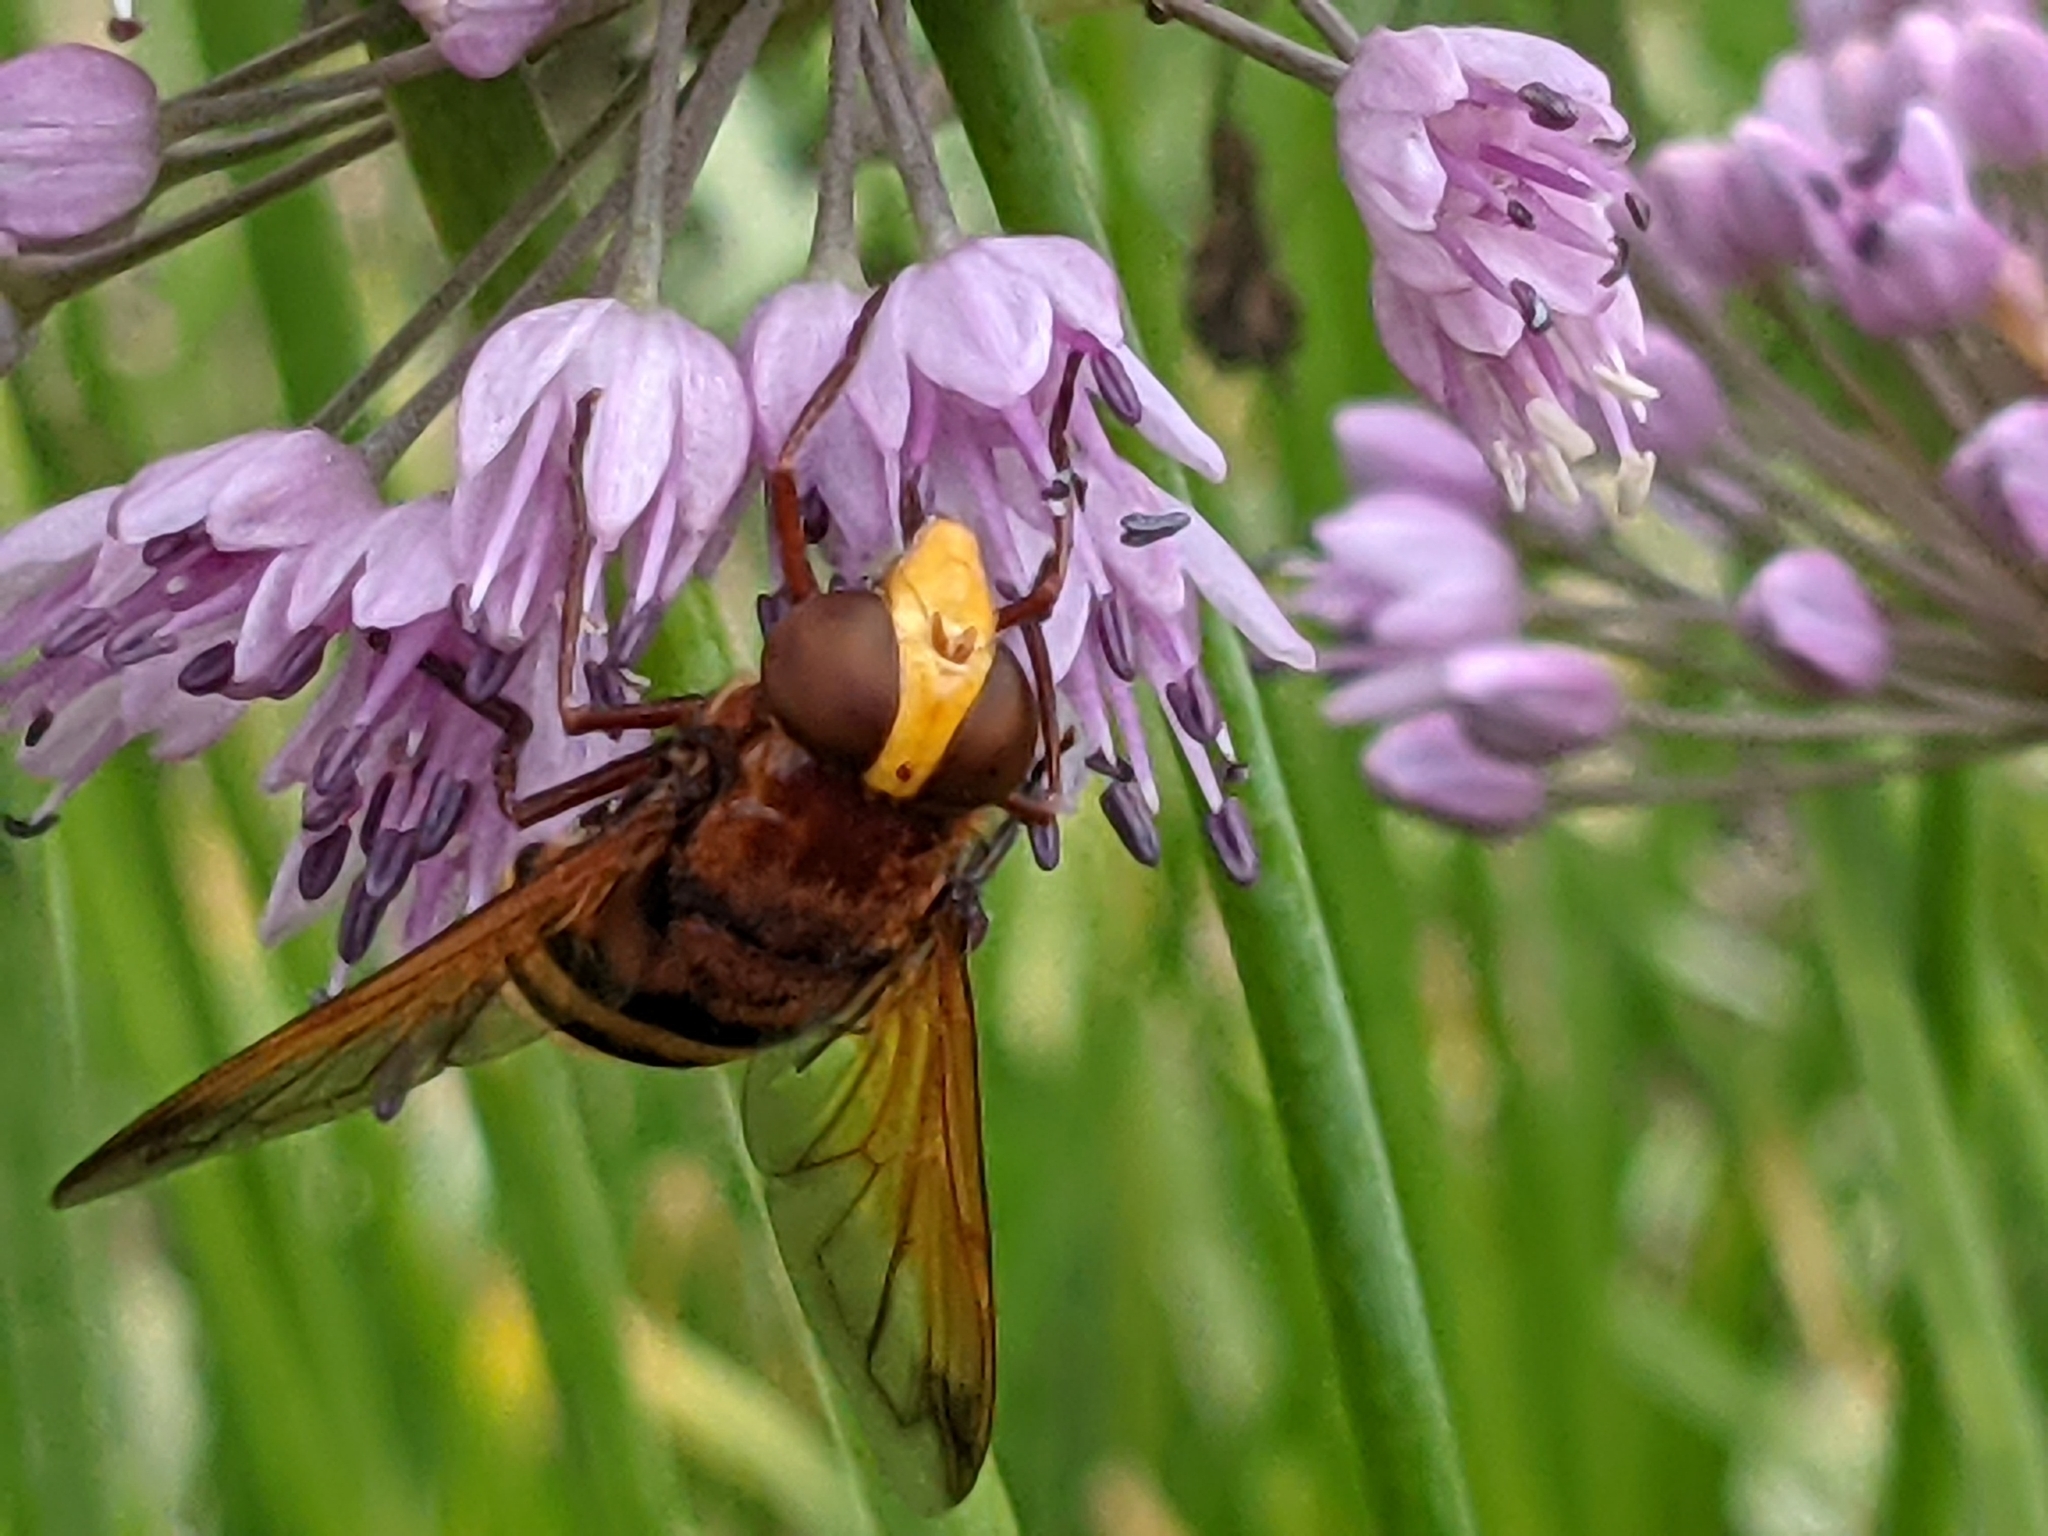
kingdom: Animalia
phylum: Arthropoda
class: Insecta
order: Diptera
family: Syrphidae
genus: Volucella
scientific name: Volucella zonaria
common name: Hornet hoverfly
